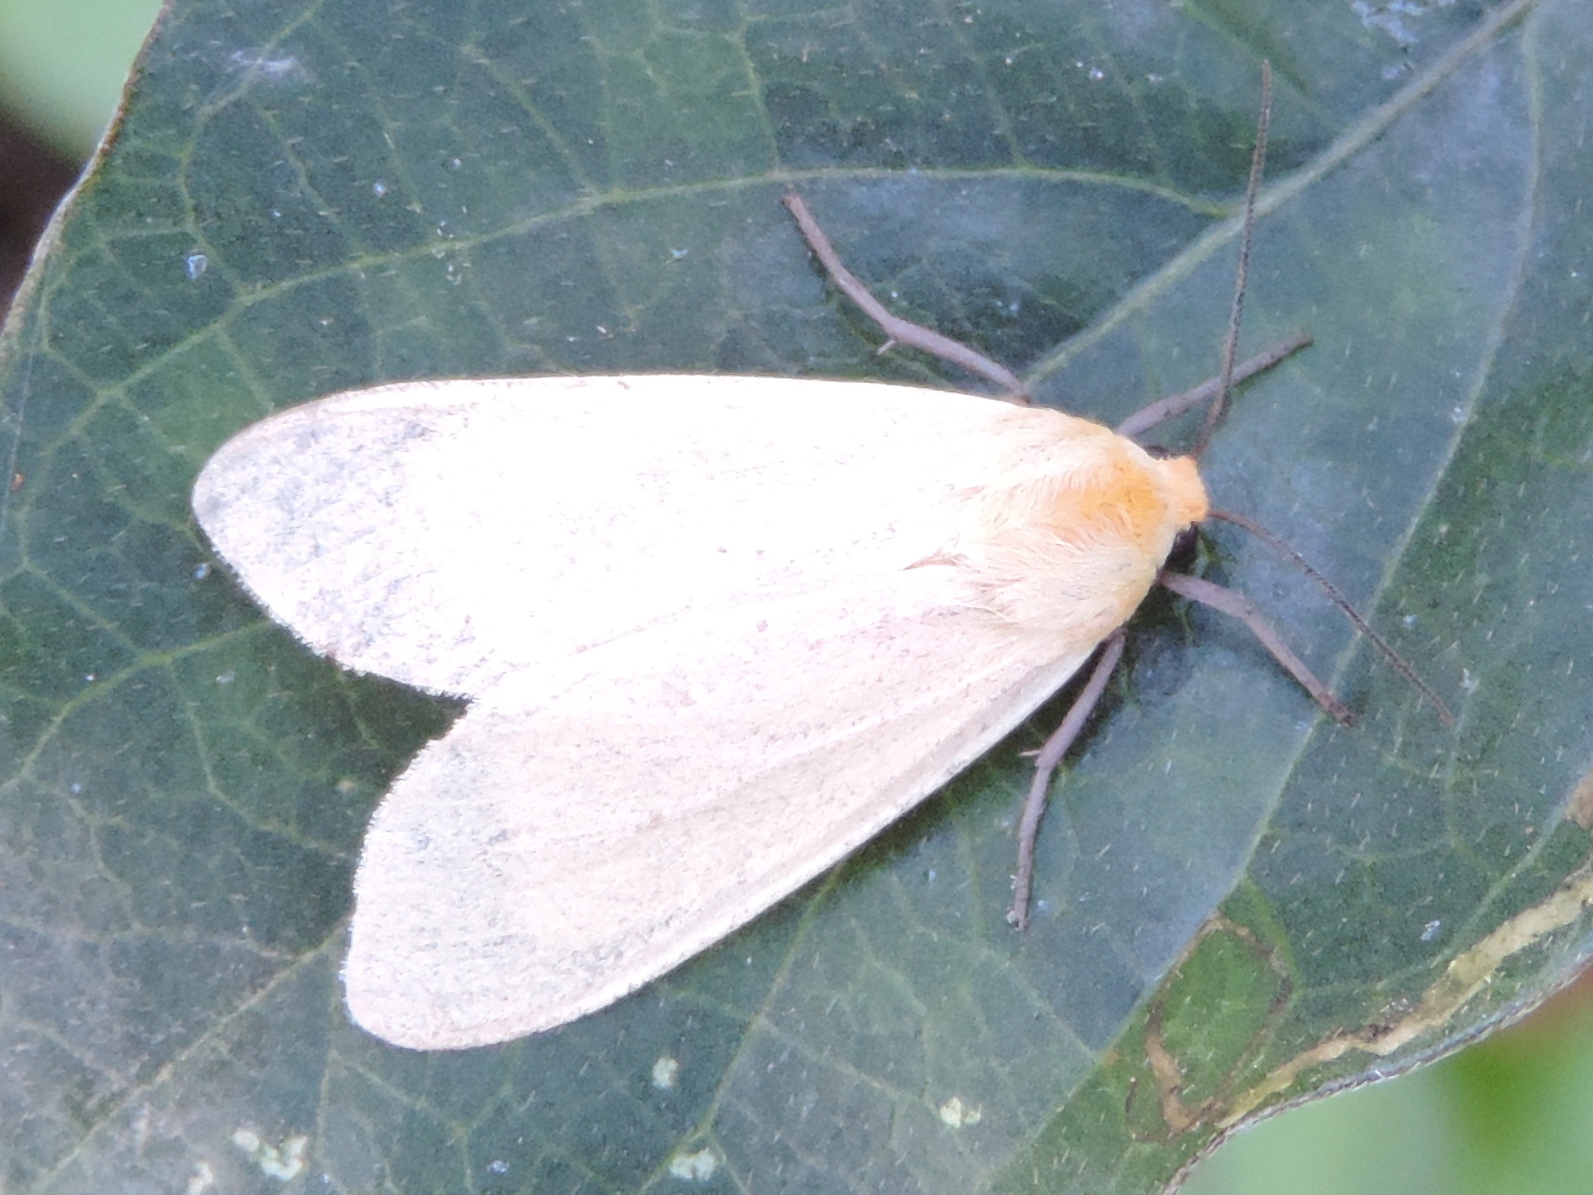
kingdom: Animalia
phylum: Arthropoda
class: Insecta
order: Lepidoptera
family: Erebidae
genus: Arctiinae
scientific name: Arctiinae
